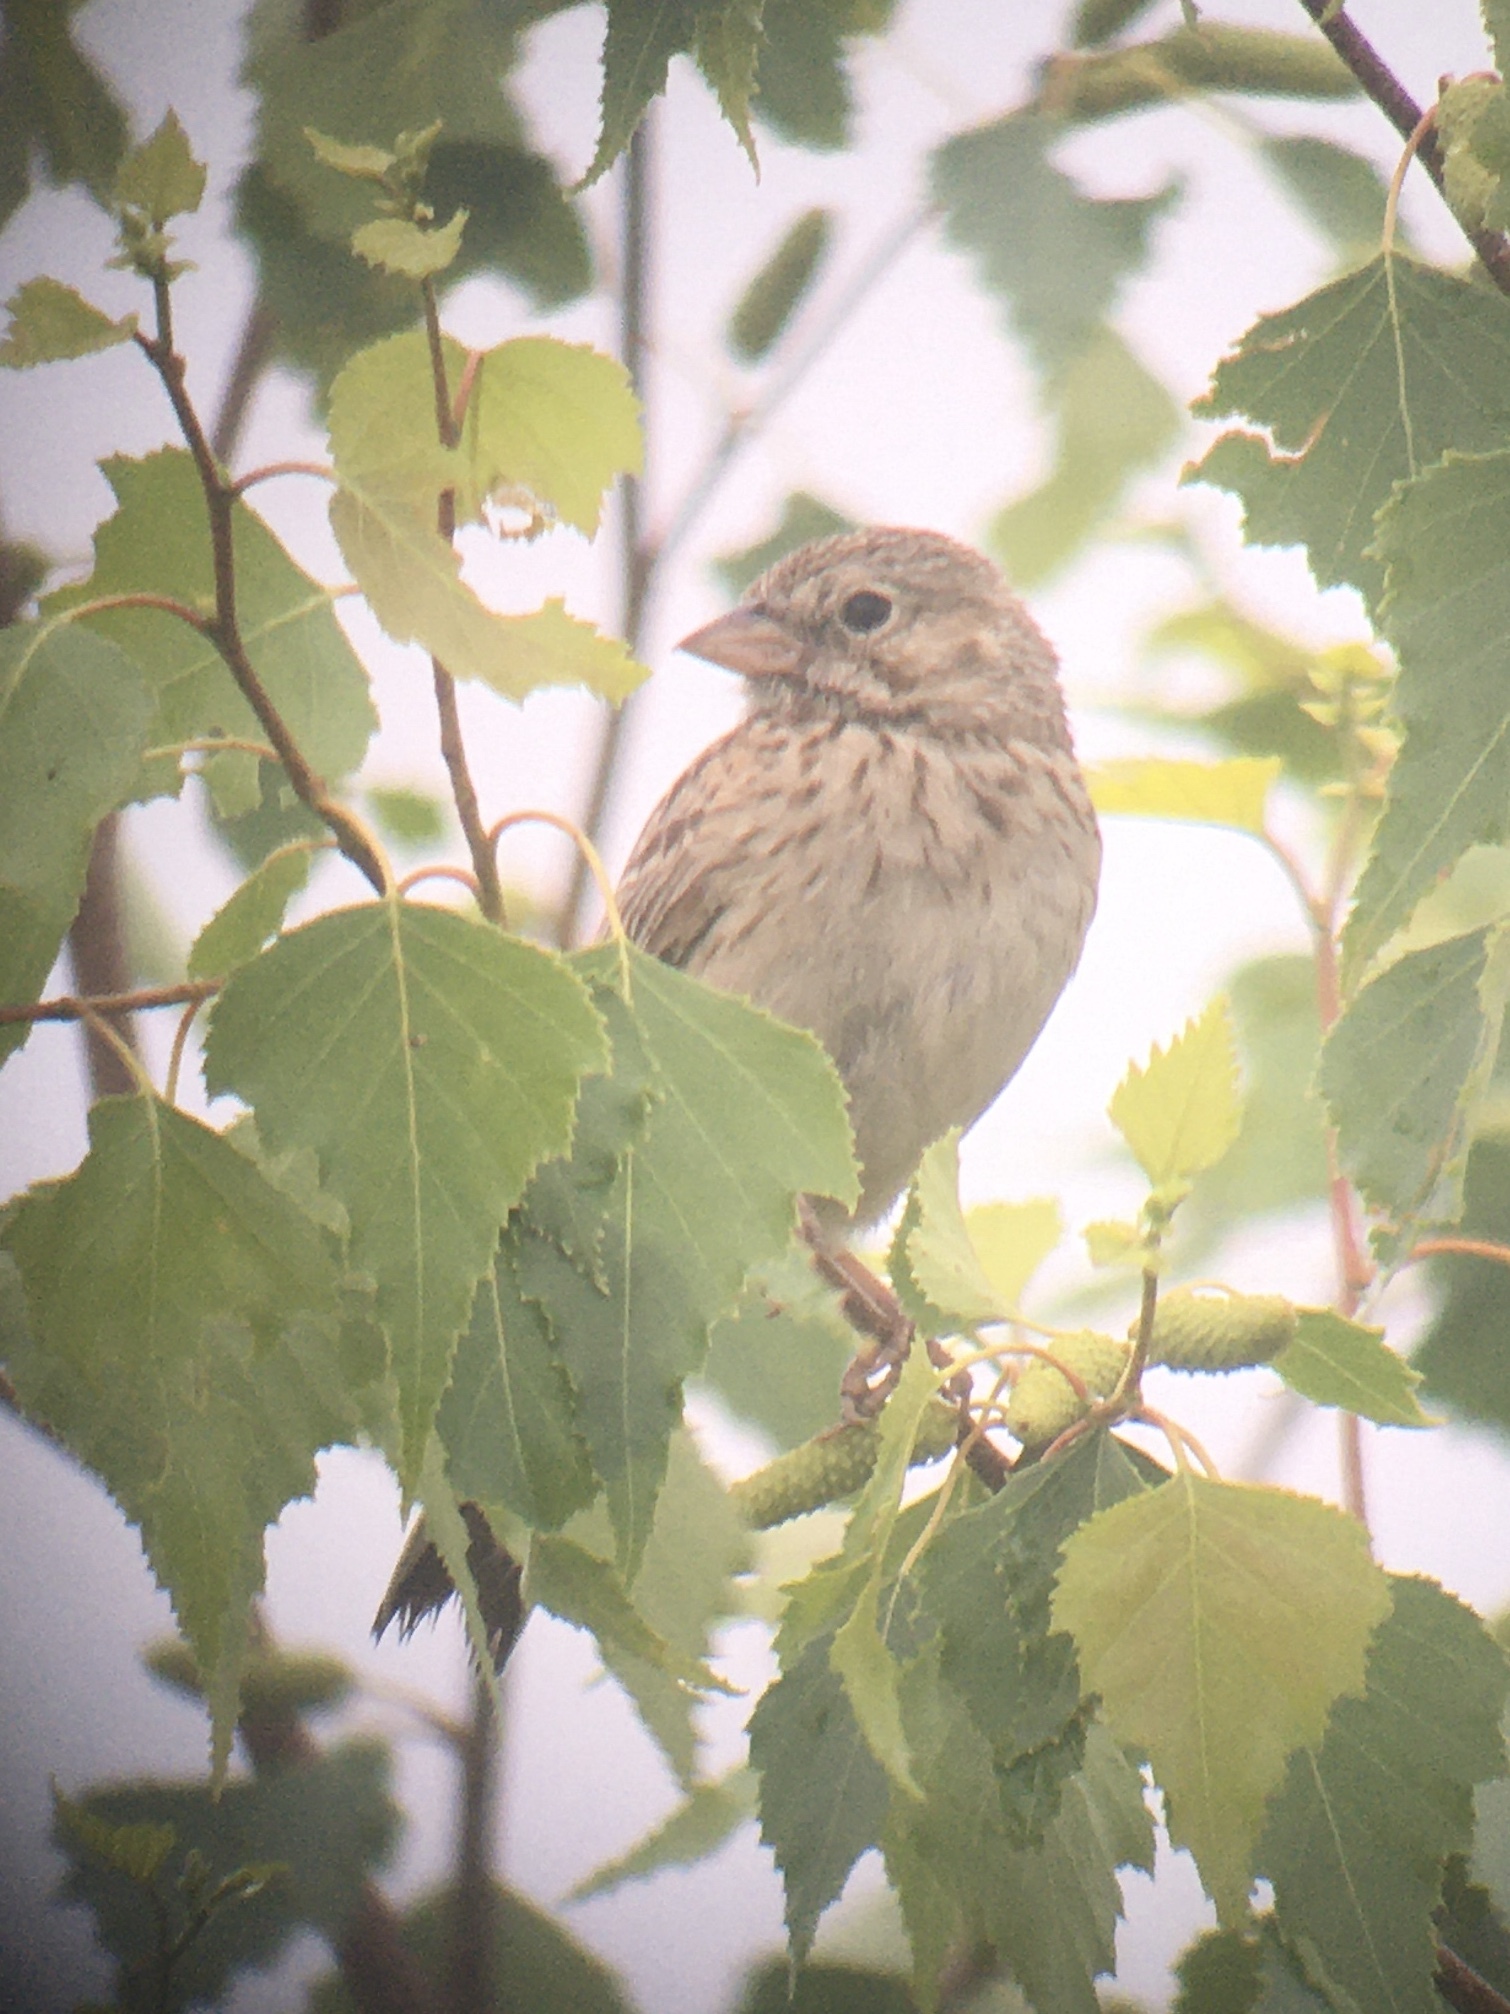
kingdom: Animalia
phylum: Chordata
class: Aves
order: Passeriformes
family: Passerellidae
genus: Pooecetes
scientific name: Pooecetes gramineus
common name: Vesper sparrow
